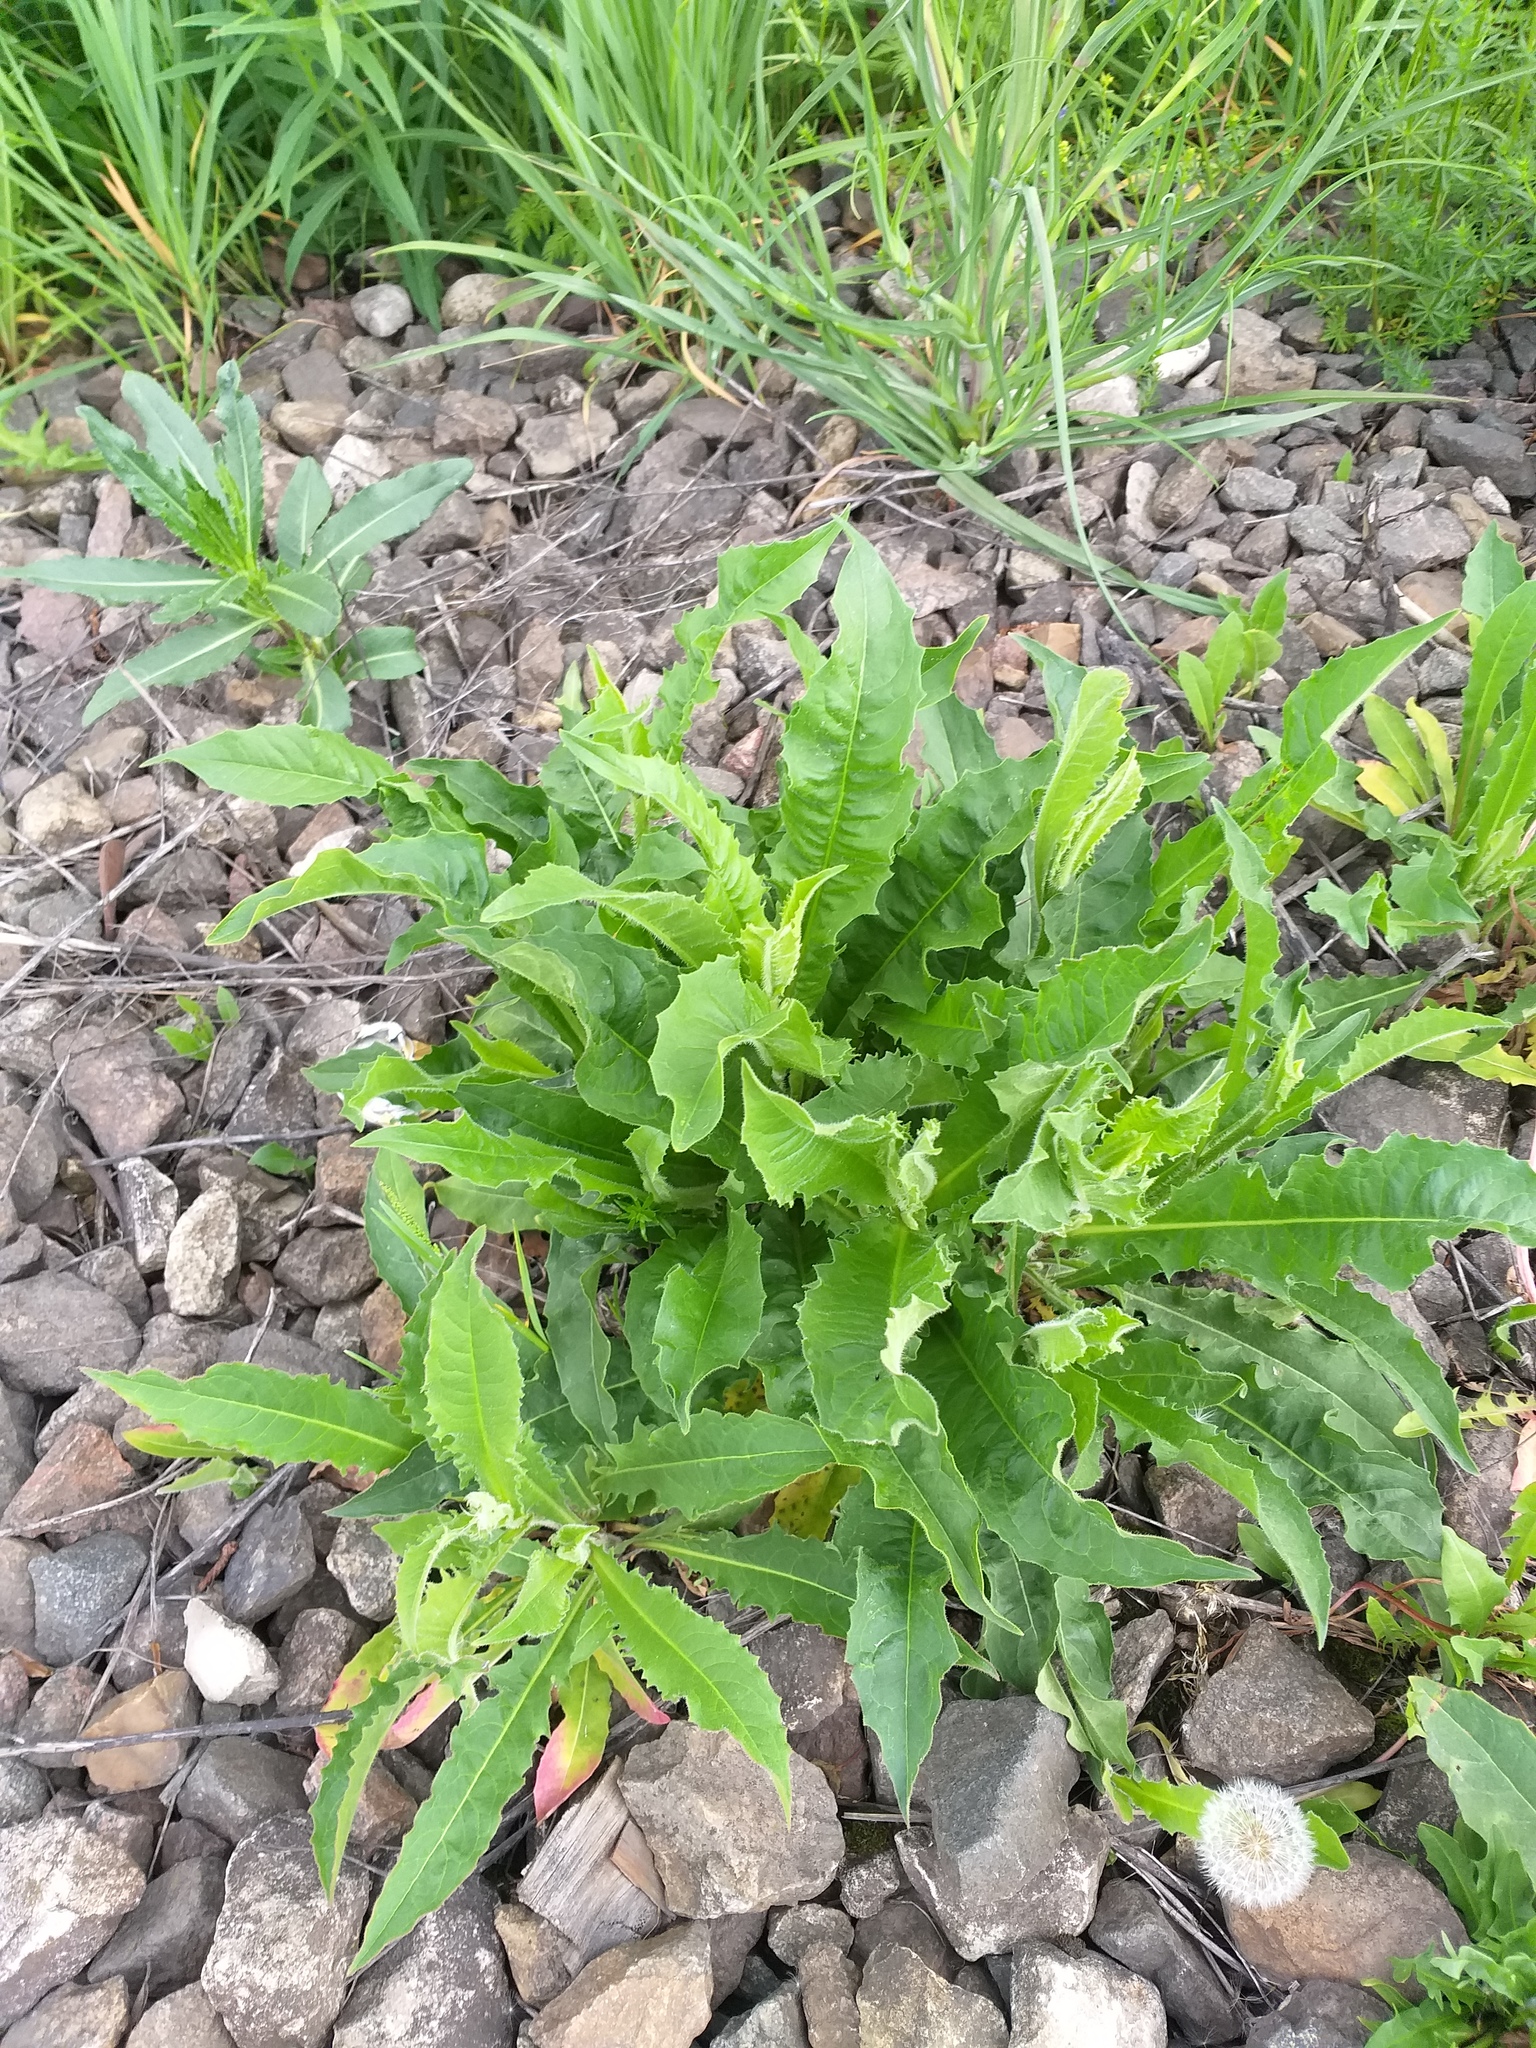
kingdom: Plantae
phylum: Tracheophyta
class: Magnoliopsida
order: Asterales
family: Asteraceae
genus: Picris
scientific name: Picris hieracioides
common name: Hawkweed oxtongue
